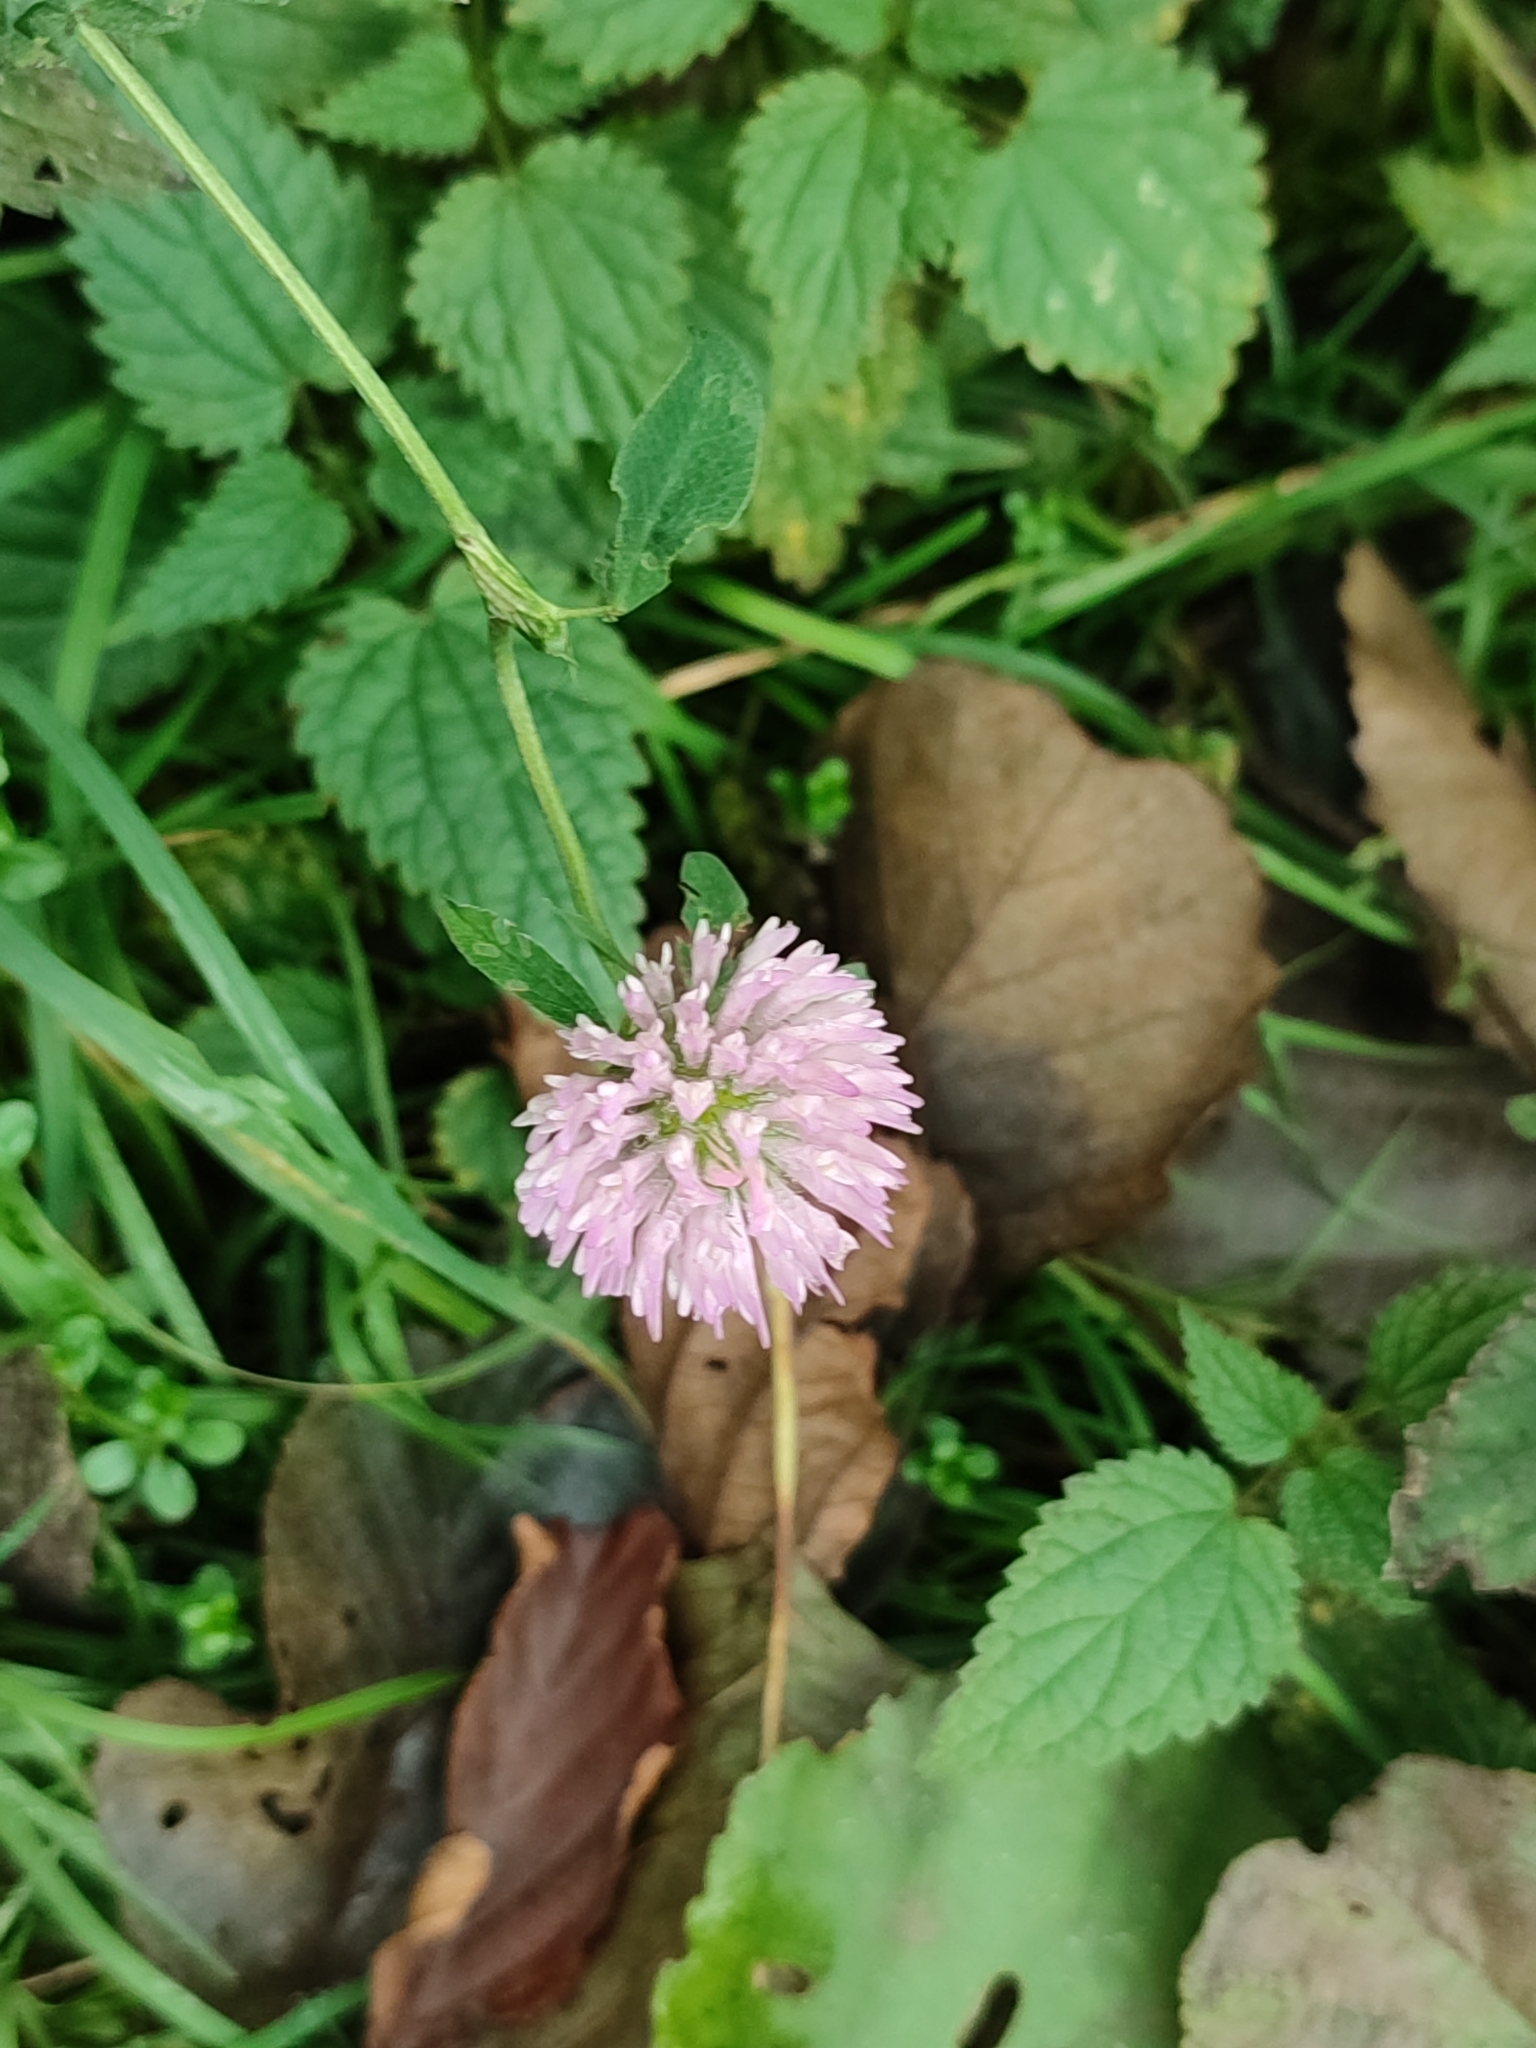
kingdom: Plantae
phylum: Tracheophyta
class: Magnoliopsida
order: Fabales
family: Fabaceae
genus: Trifolium
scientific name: Trifolium pratense
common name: Red clover
